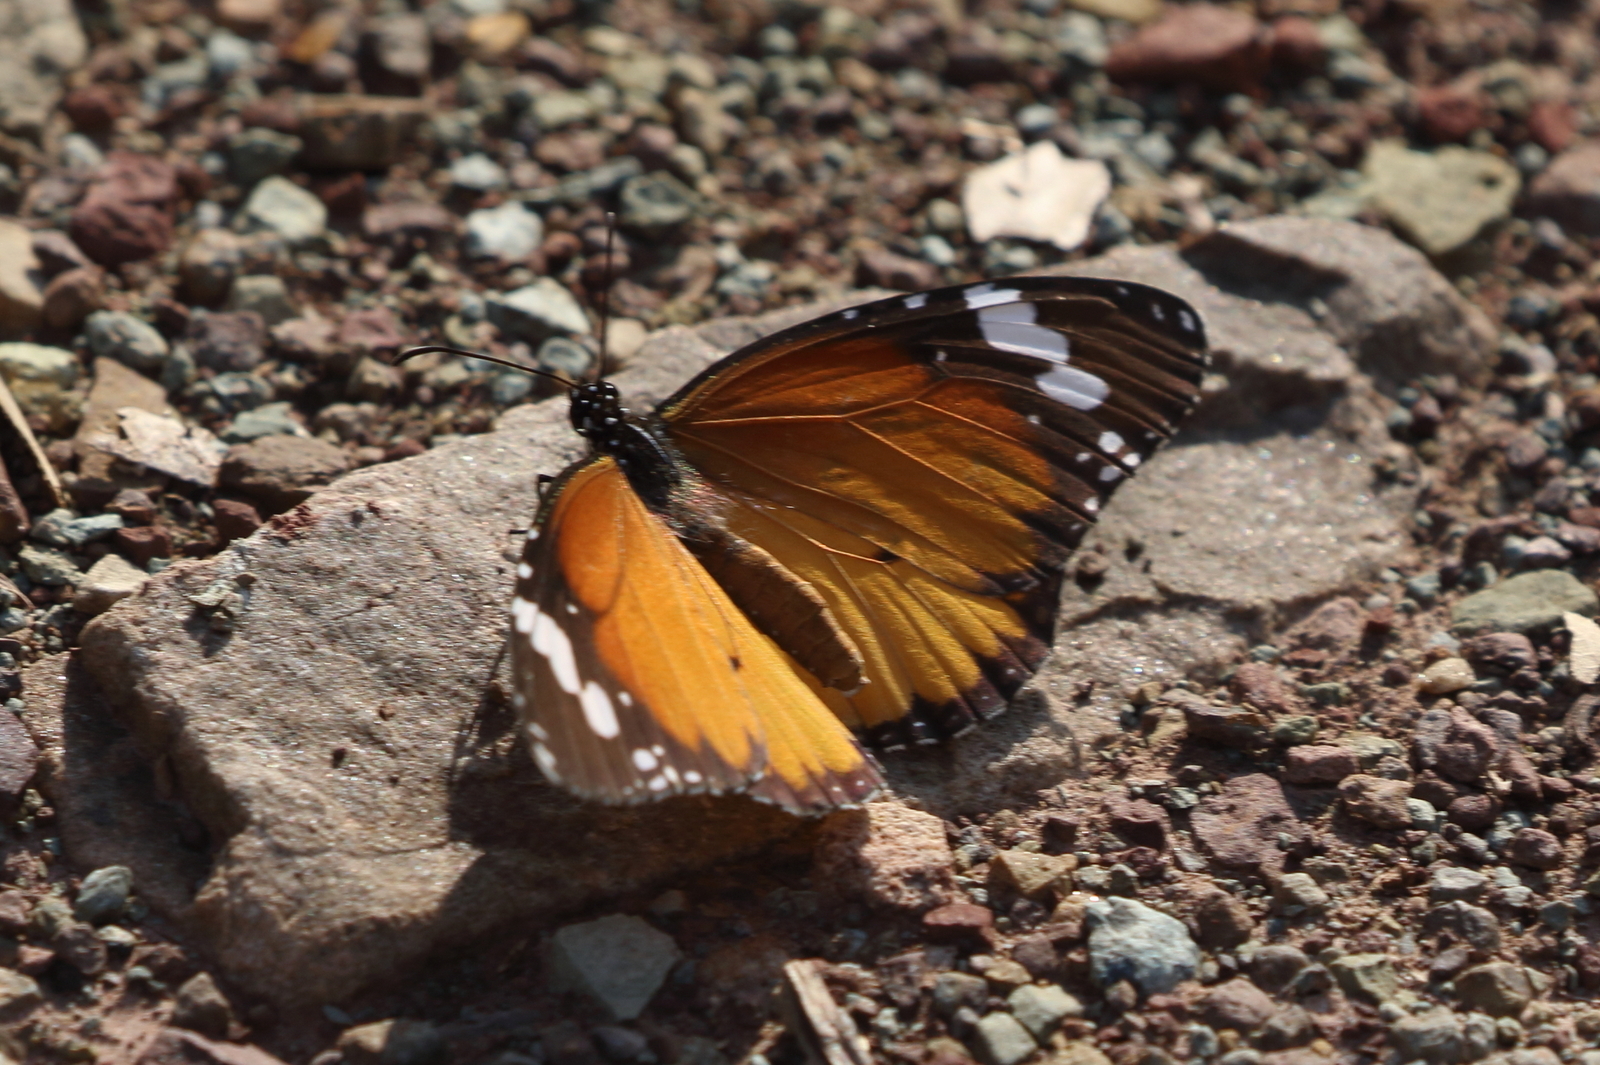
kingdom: Animalia
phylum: Arthropoda
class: Insecta
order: Lepidoptera
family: Nymphalidae
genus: Danaus
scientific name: Danaus chrysippus
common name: Plain tiger
